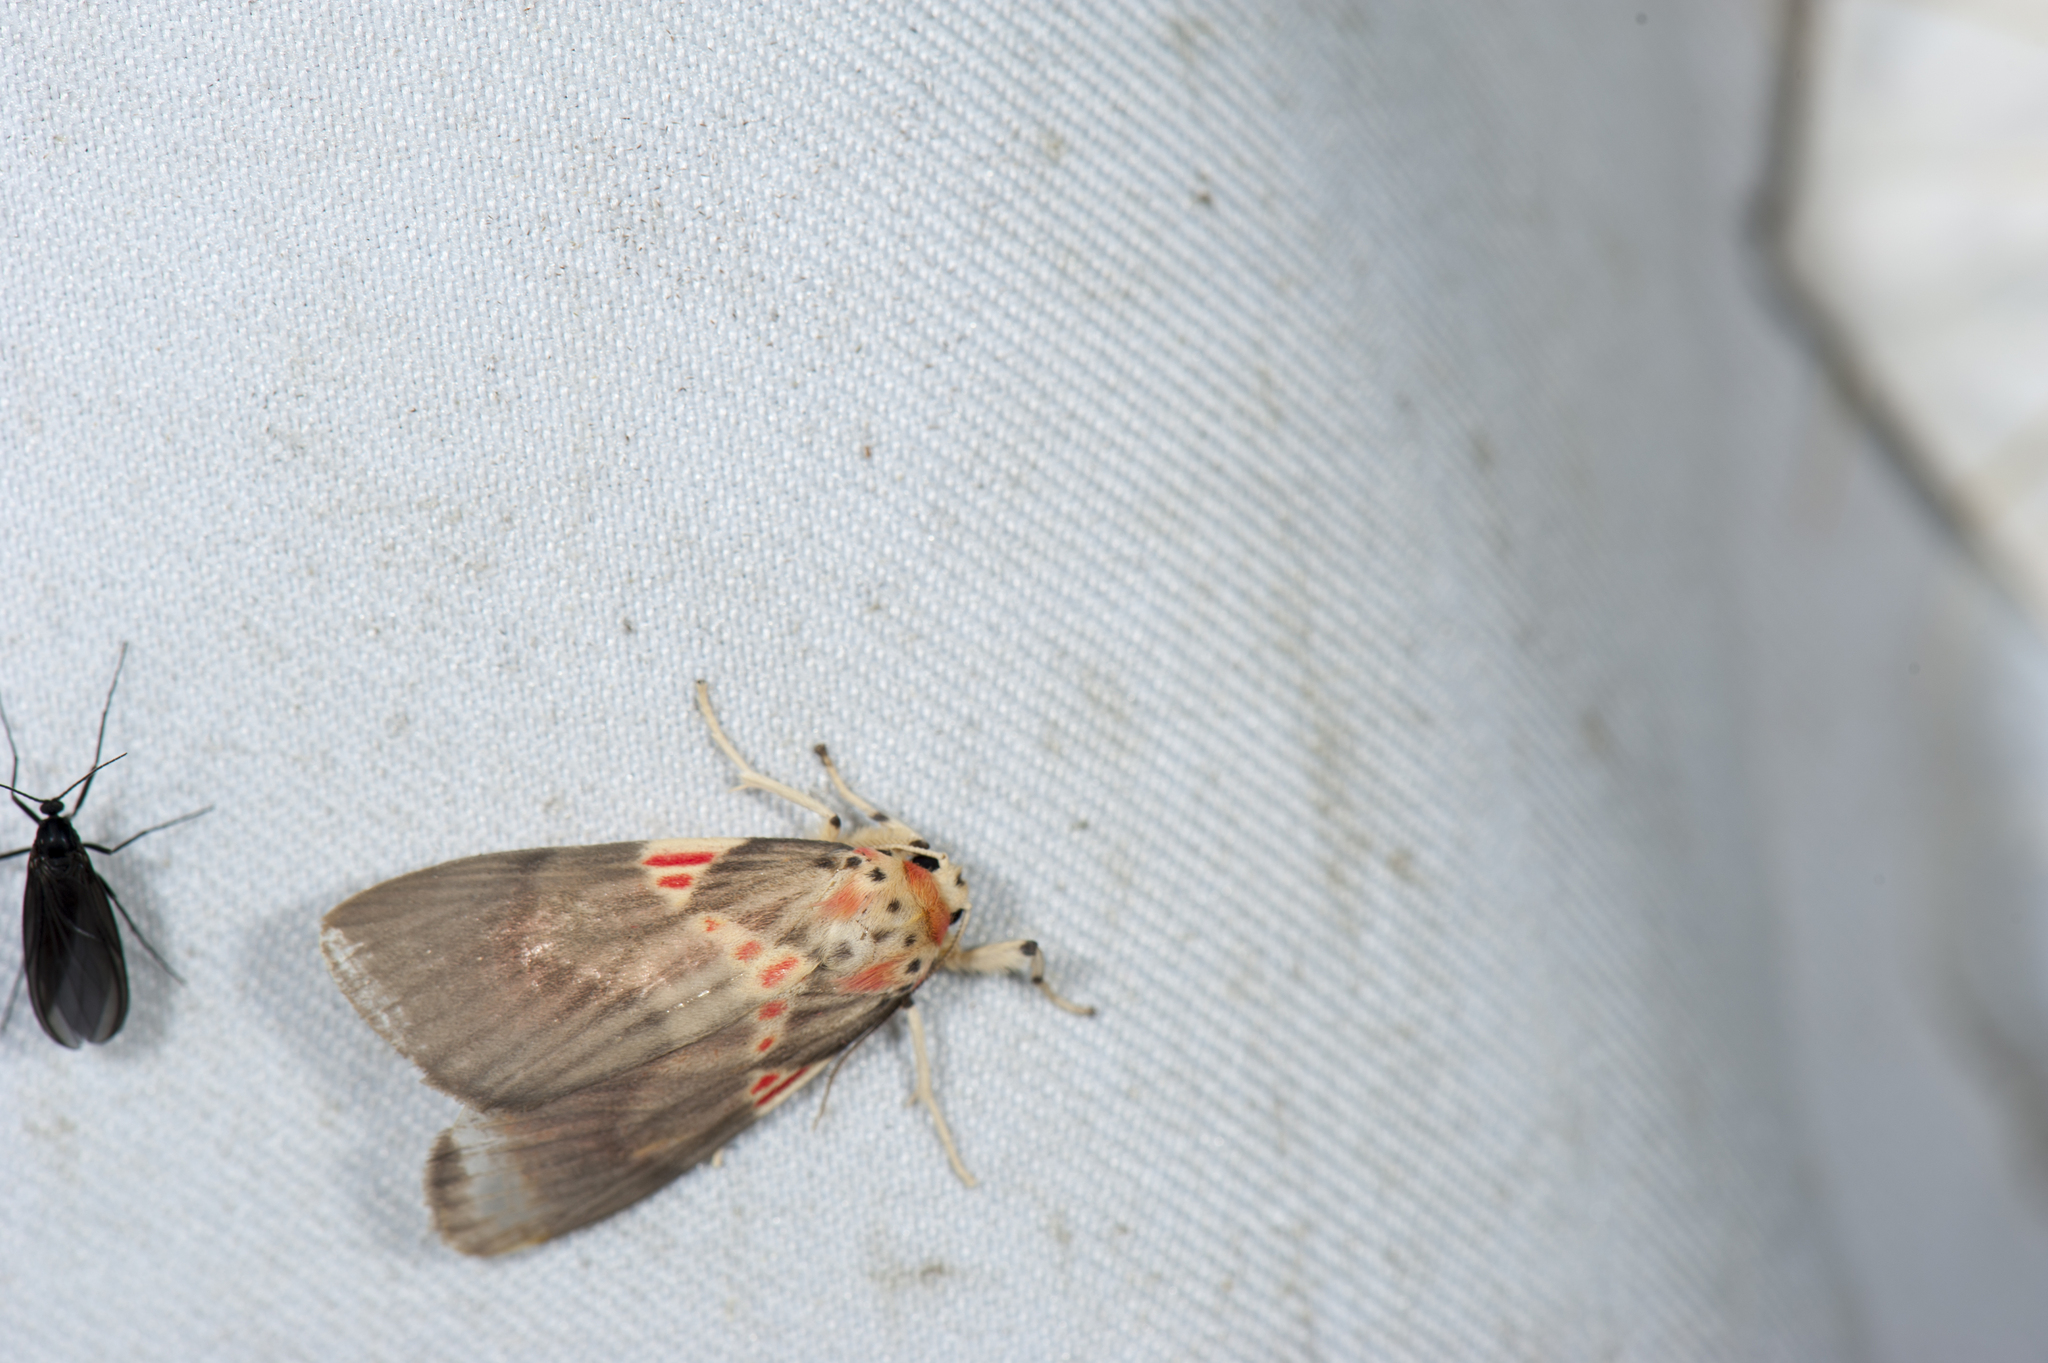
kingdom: Animalia
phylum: Arthropoda
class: Insecta
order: Lepidoptera
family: Erebidae
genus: Barsine
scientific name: Barsine fuscozonata
